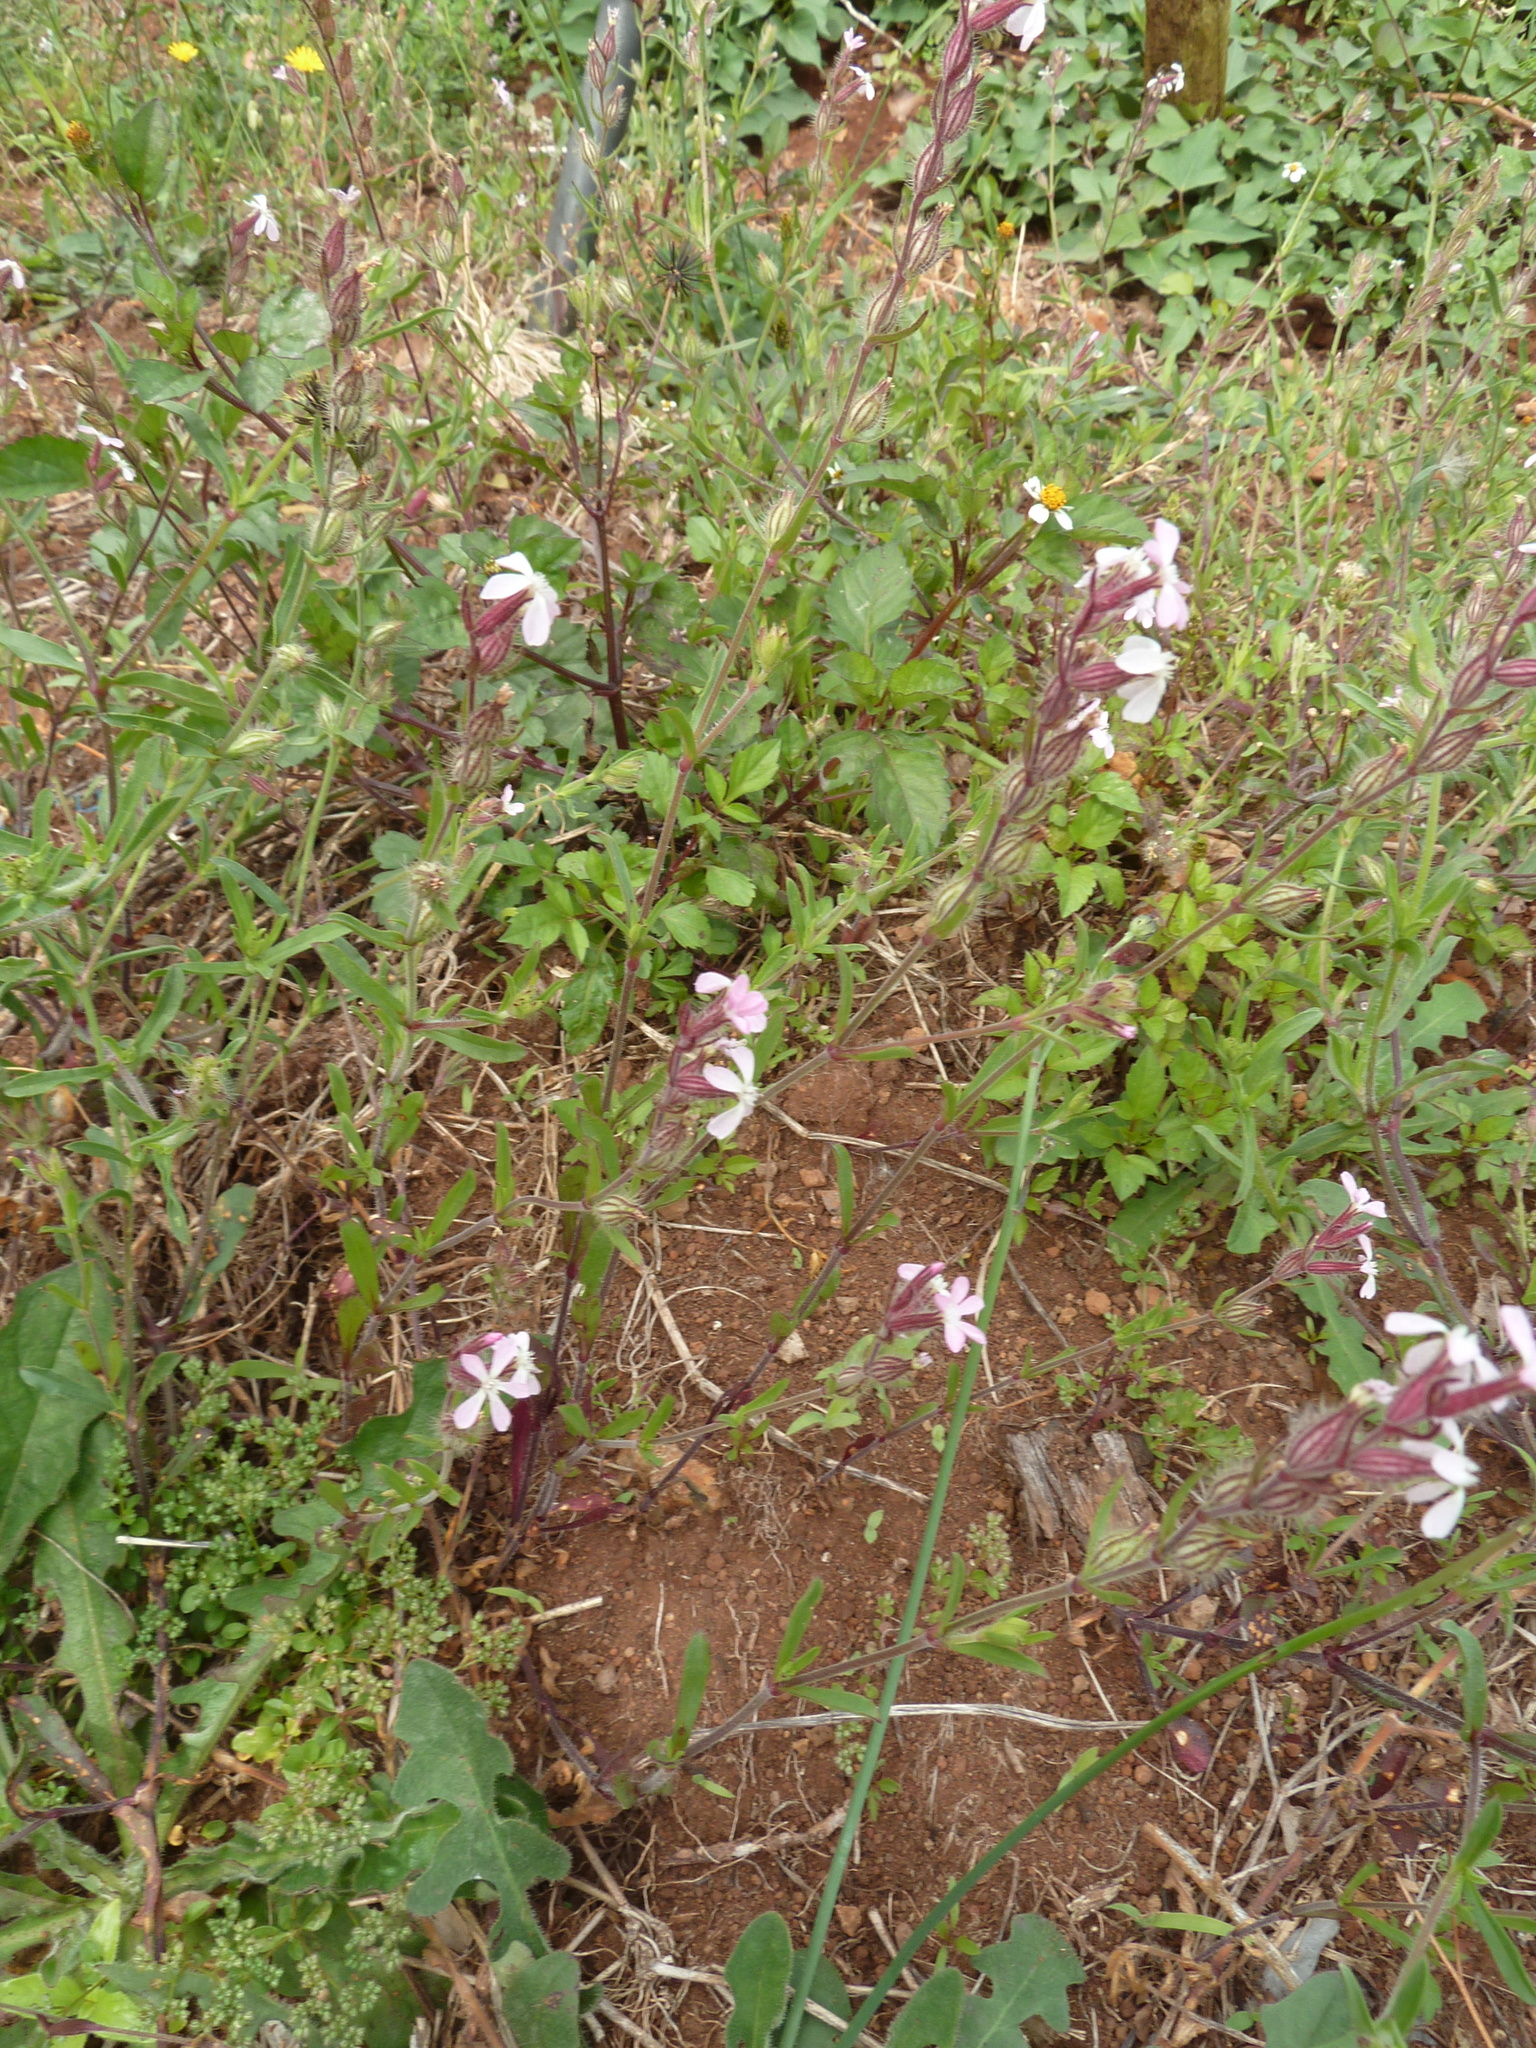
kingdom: Plantae
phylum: Tracheophyta
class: Magnoliopsida
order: Caryophyllales
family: Caryophyllaceae
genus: Silene
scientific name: Silene gallica
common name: Small-flowered catchfly
